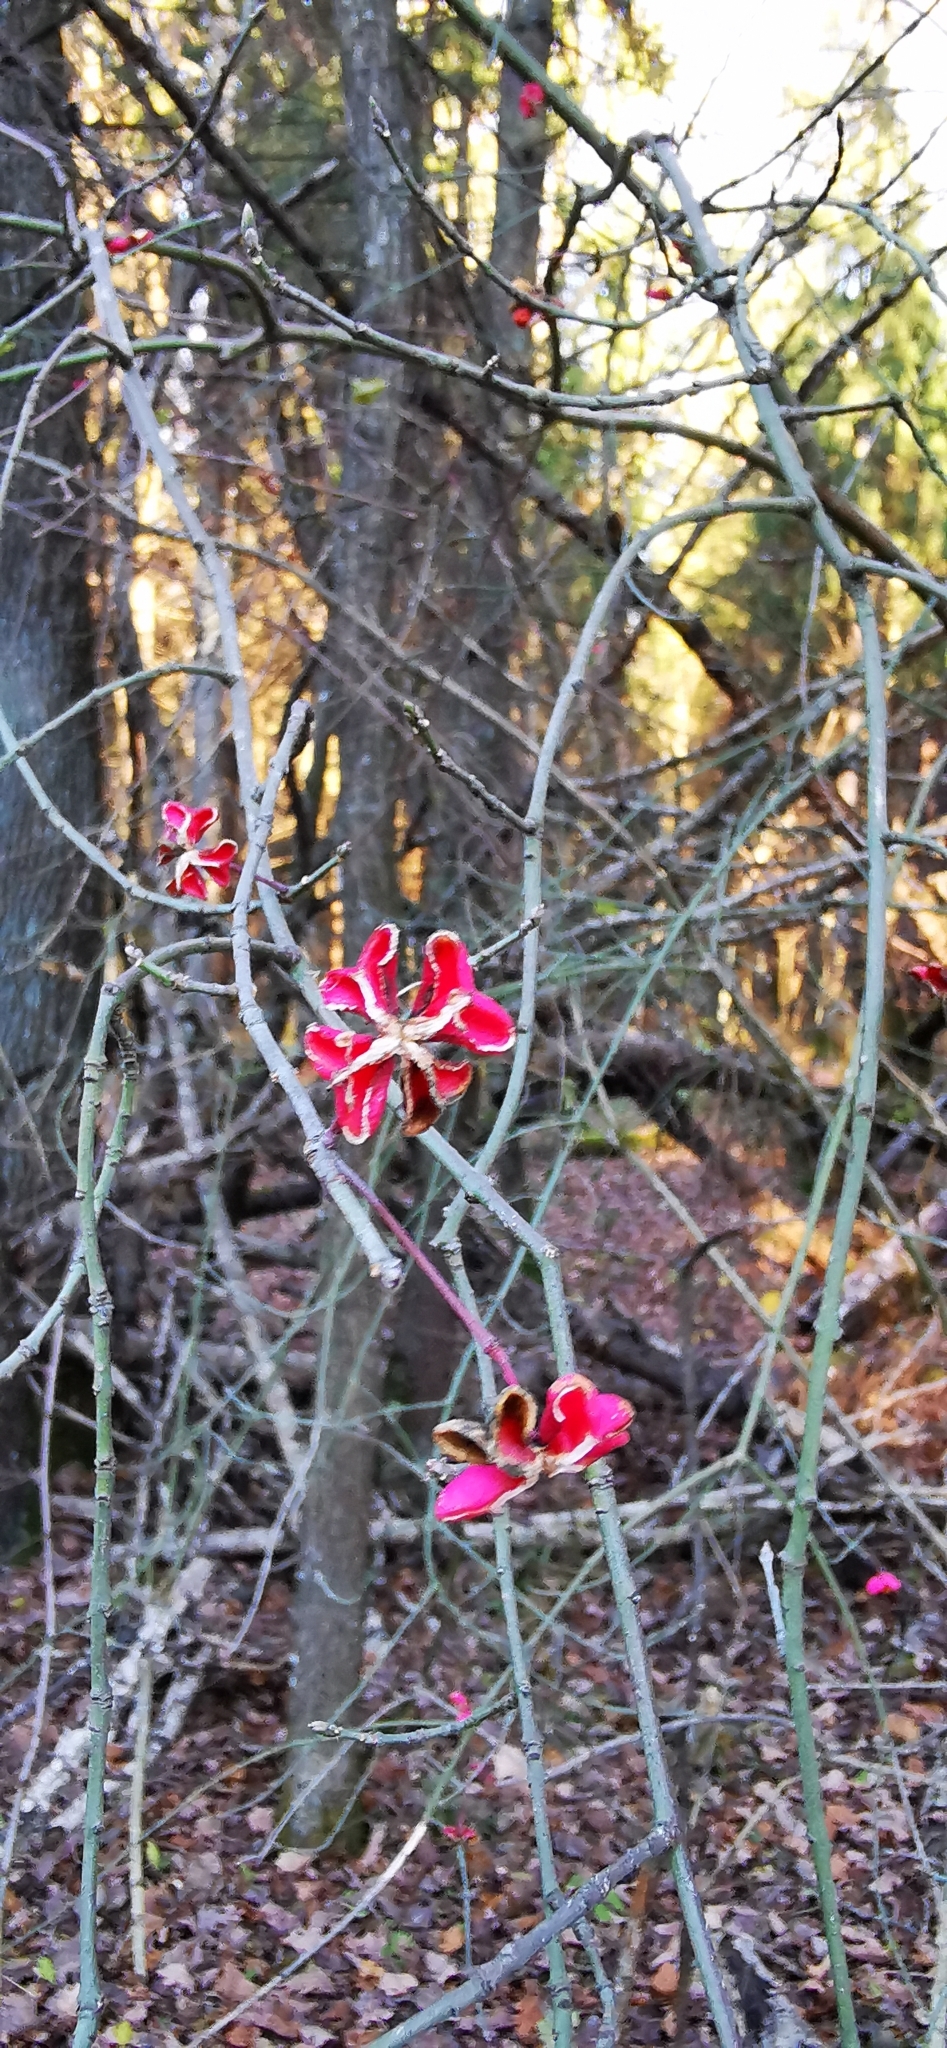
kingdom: Plantae
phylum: Tracheophyta
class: Magnoliopsida
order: Celastrales
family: Celastraceae
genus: Euonymus
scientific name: Euonymus europaeus
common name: Spindle
